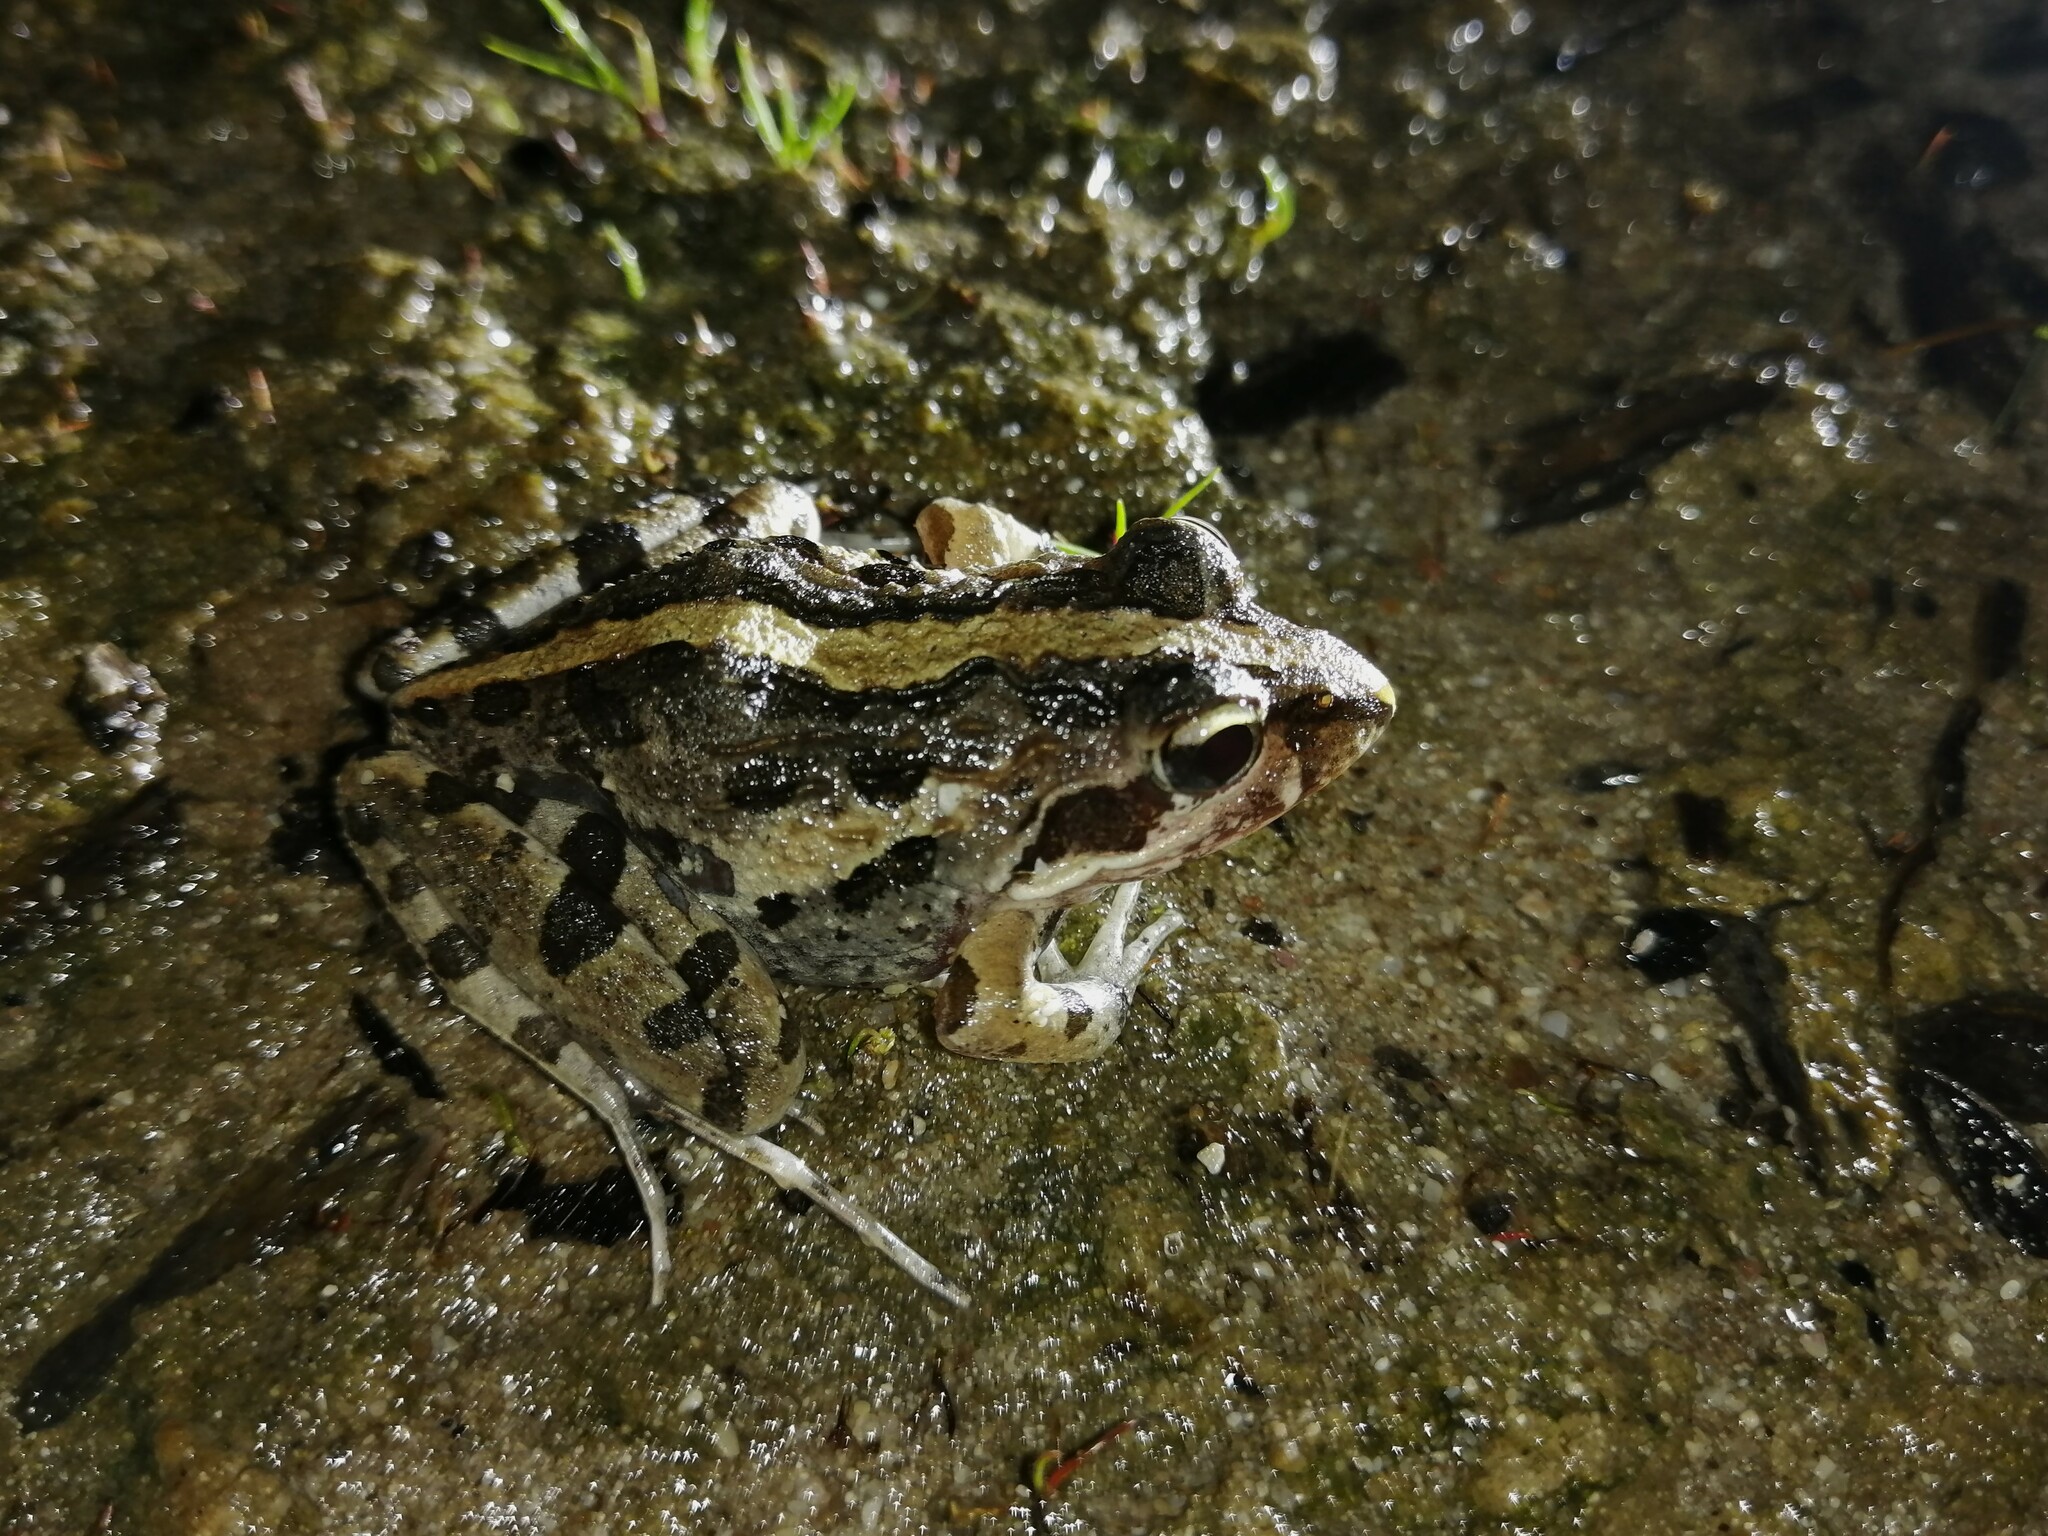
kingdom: Animalia
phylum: Chordata
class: Amphibia
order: Anura
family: Pyxicephalidae
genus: Strongylopus
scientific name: Strongylopus grayii
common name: Gray's stream frog
